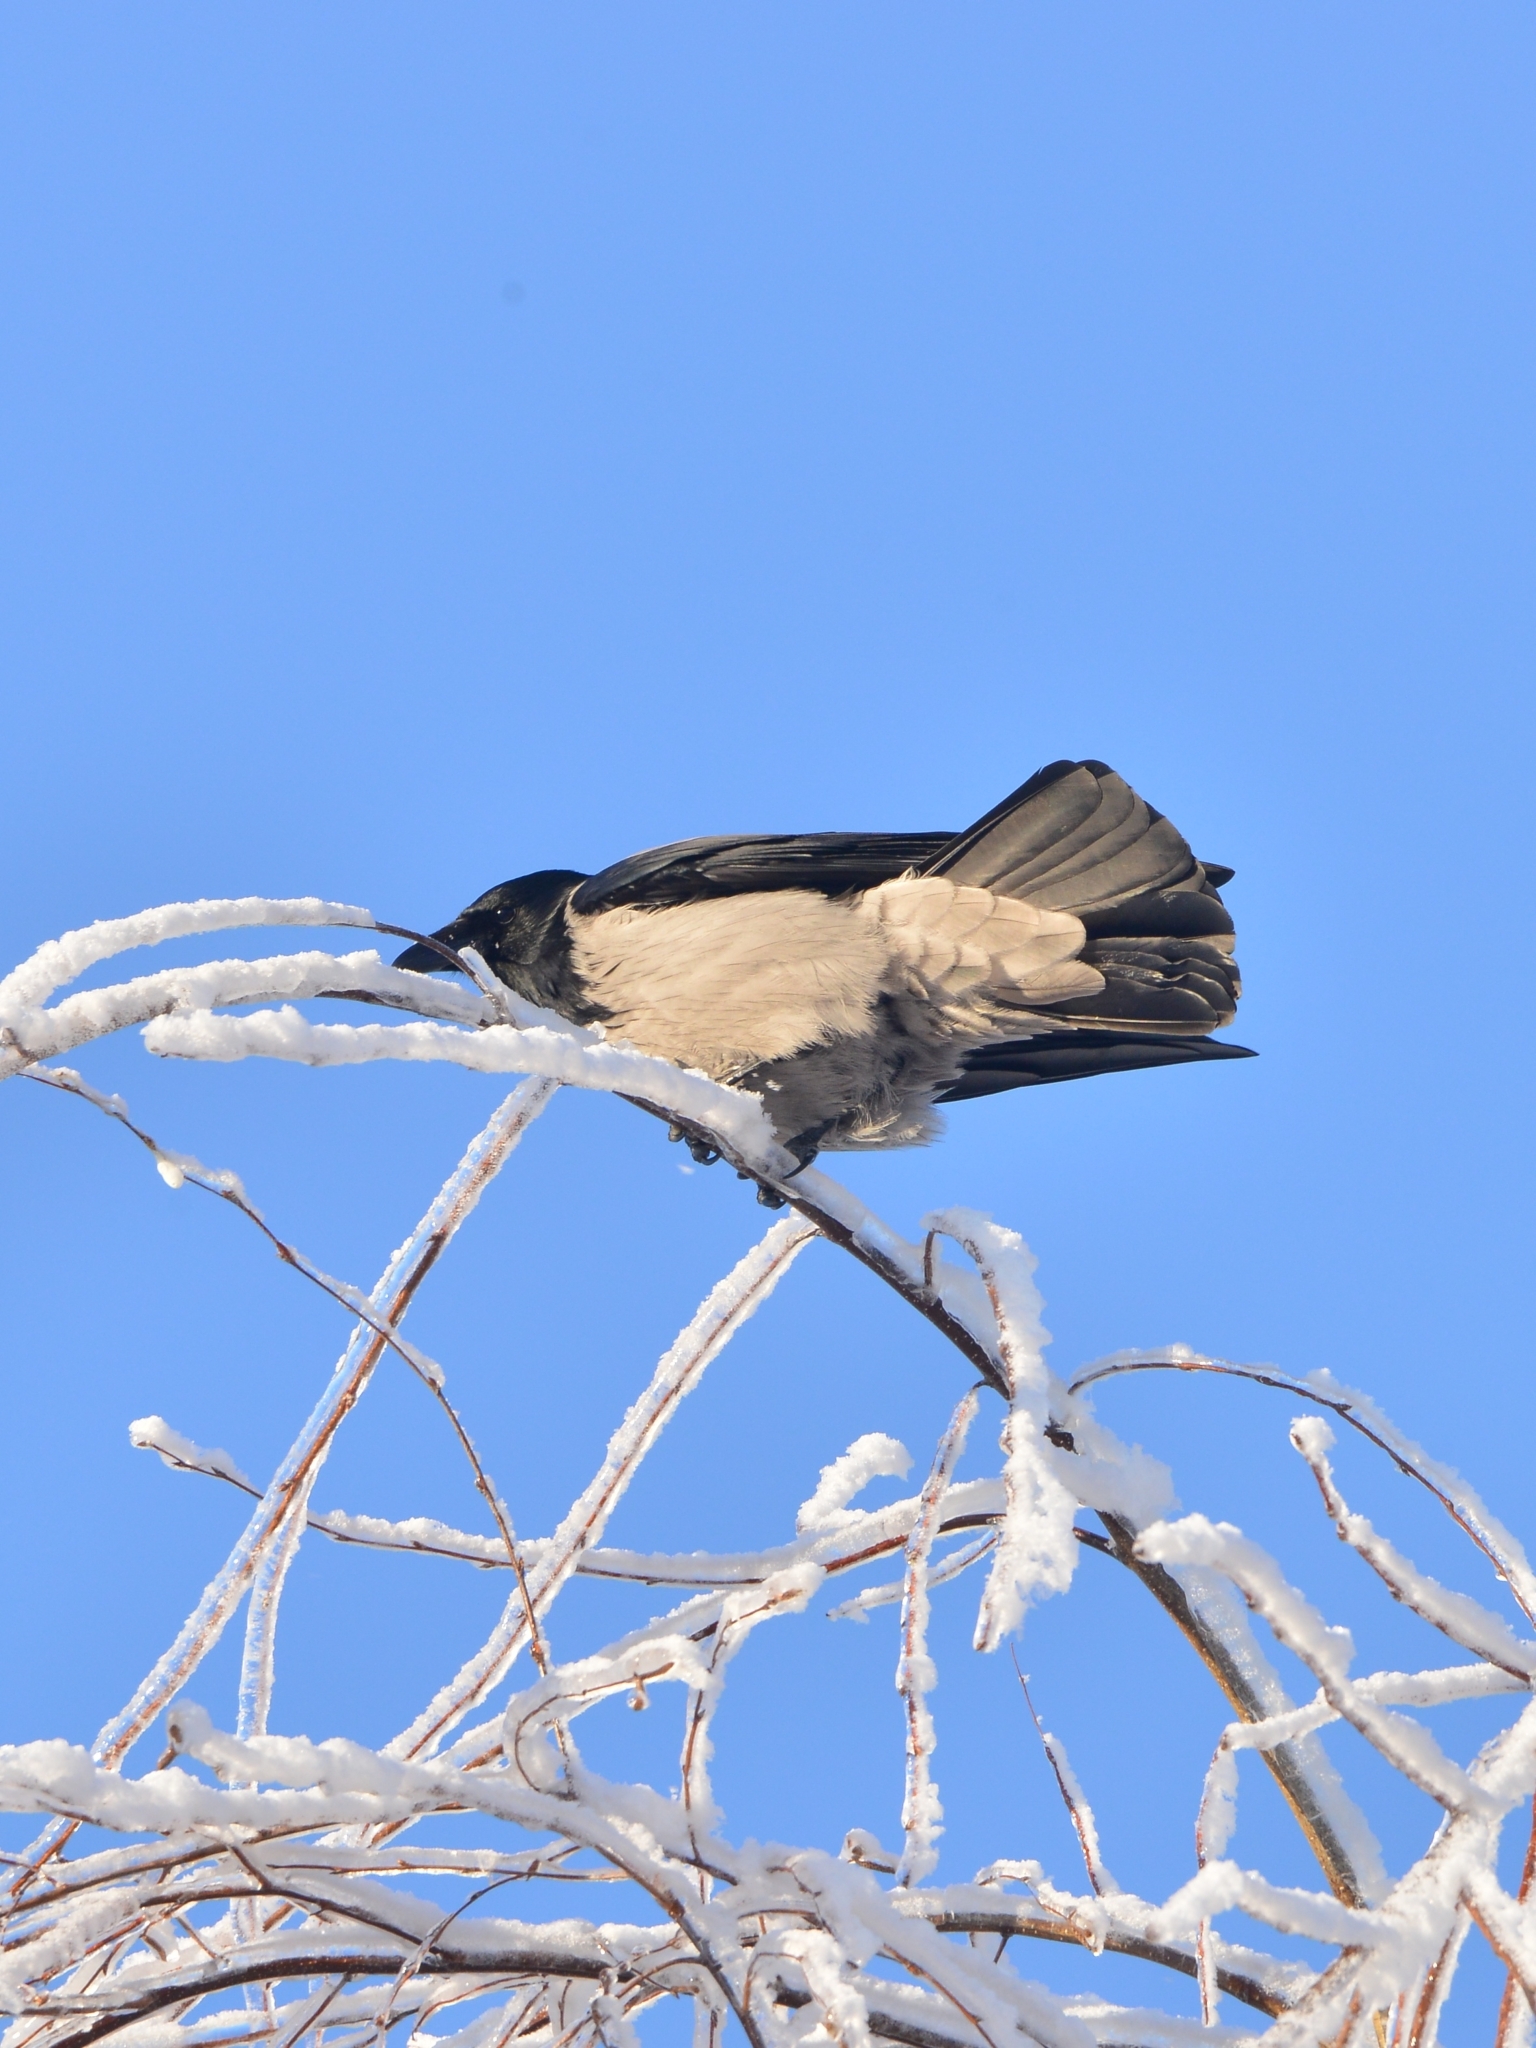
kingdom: Animalia
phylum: Chordata
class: Aves
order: Passeriformes
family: Corvidae
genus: Corvus
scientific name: Corvus cornix
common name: Hooded crow
